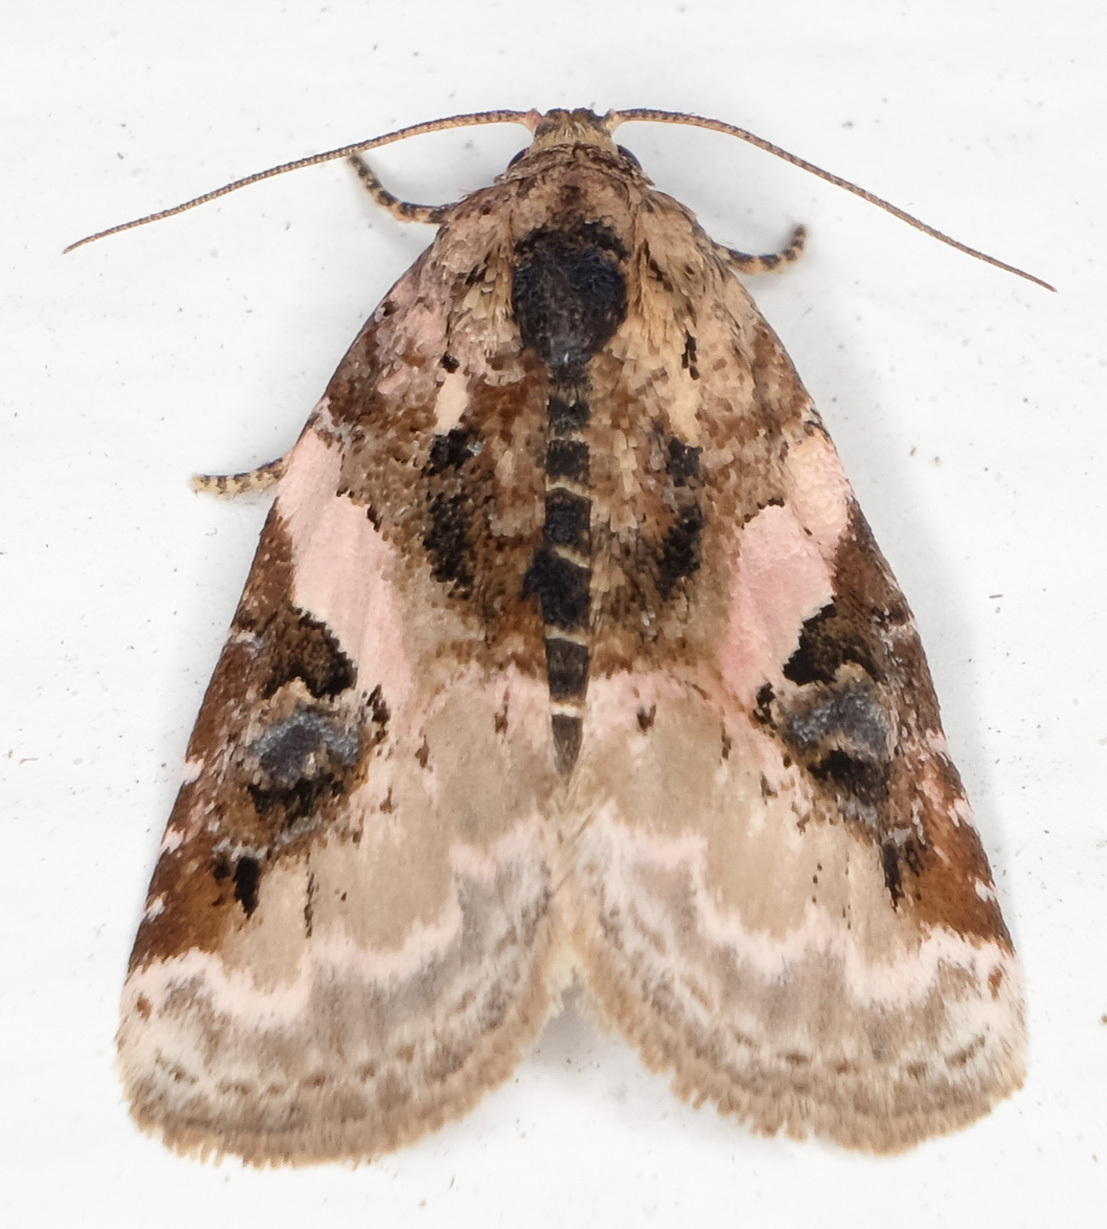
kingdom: Animalia
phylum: Arthropoda
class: Insecta
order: Lepidoptera
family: Noctuidae
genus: Pseudeustrotia
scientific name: Pseudeustrotia carneola
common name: Pink-barred lithacodia moth
